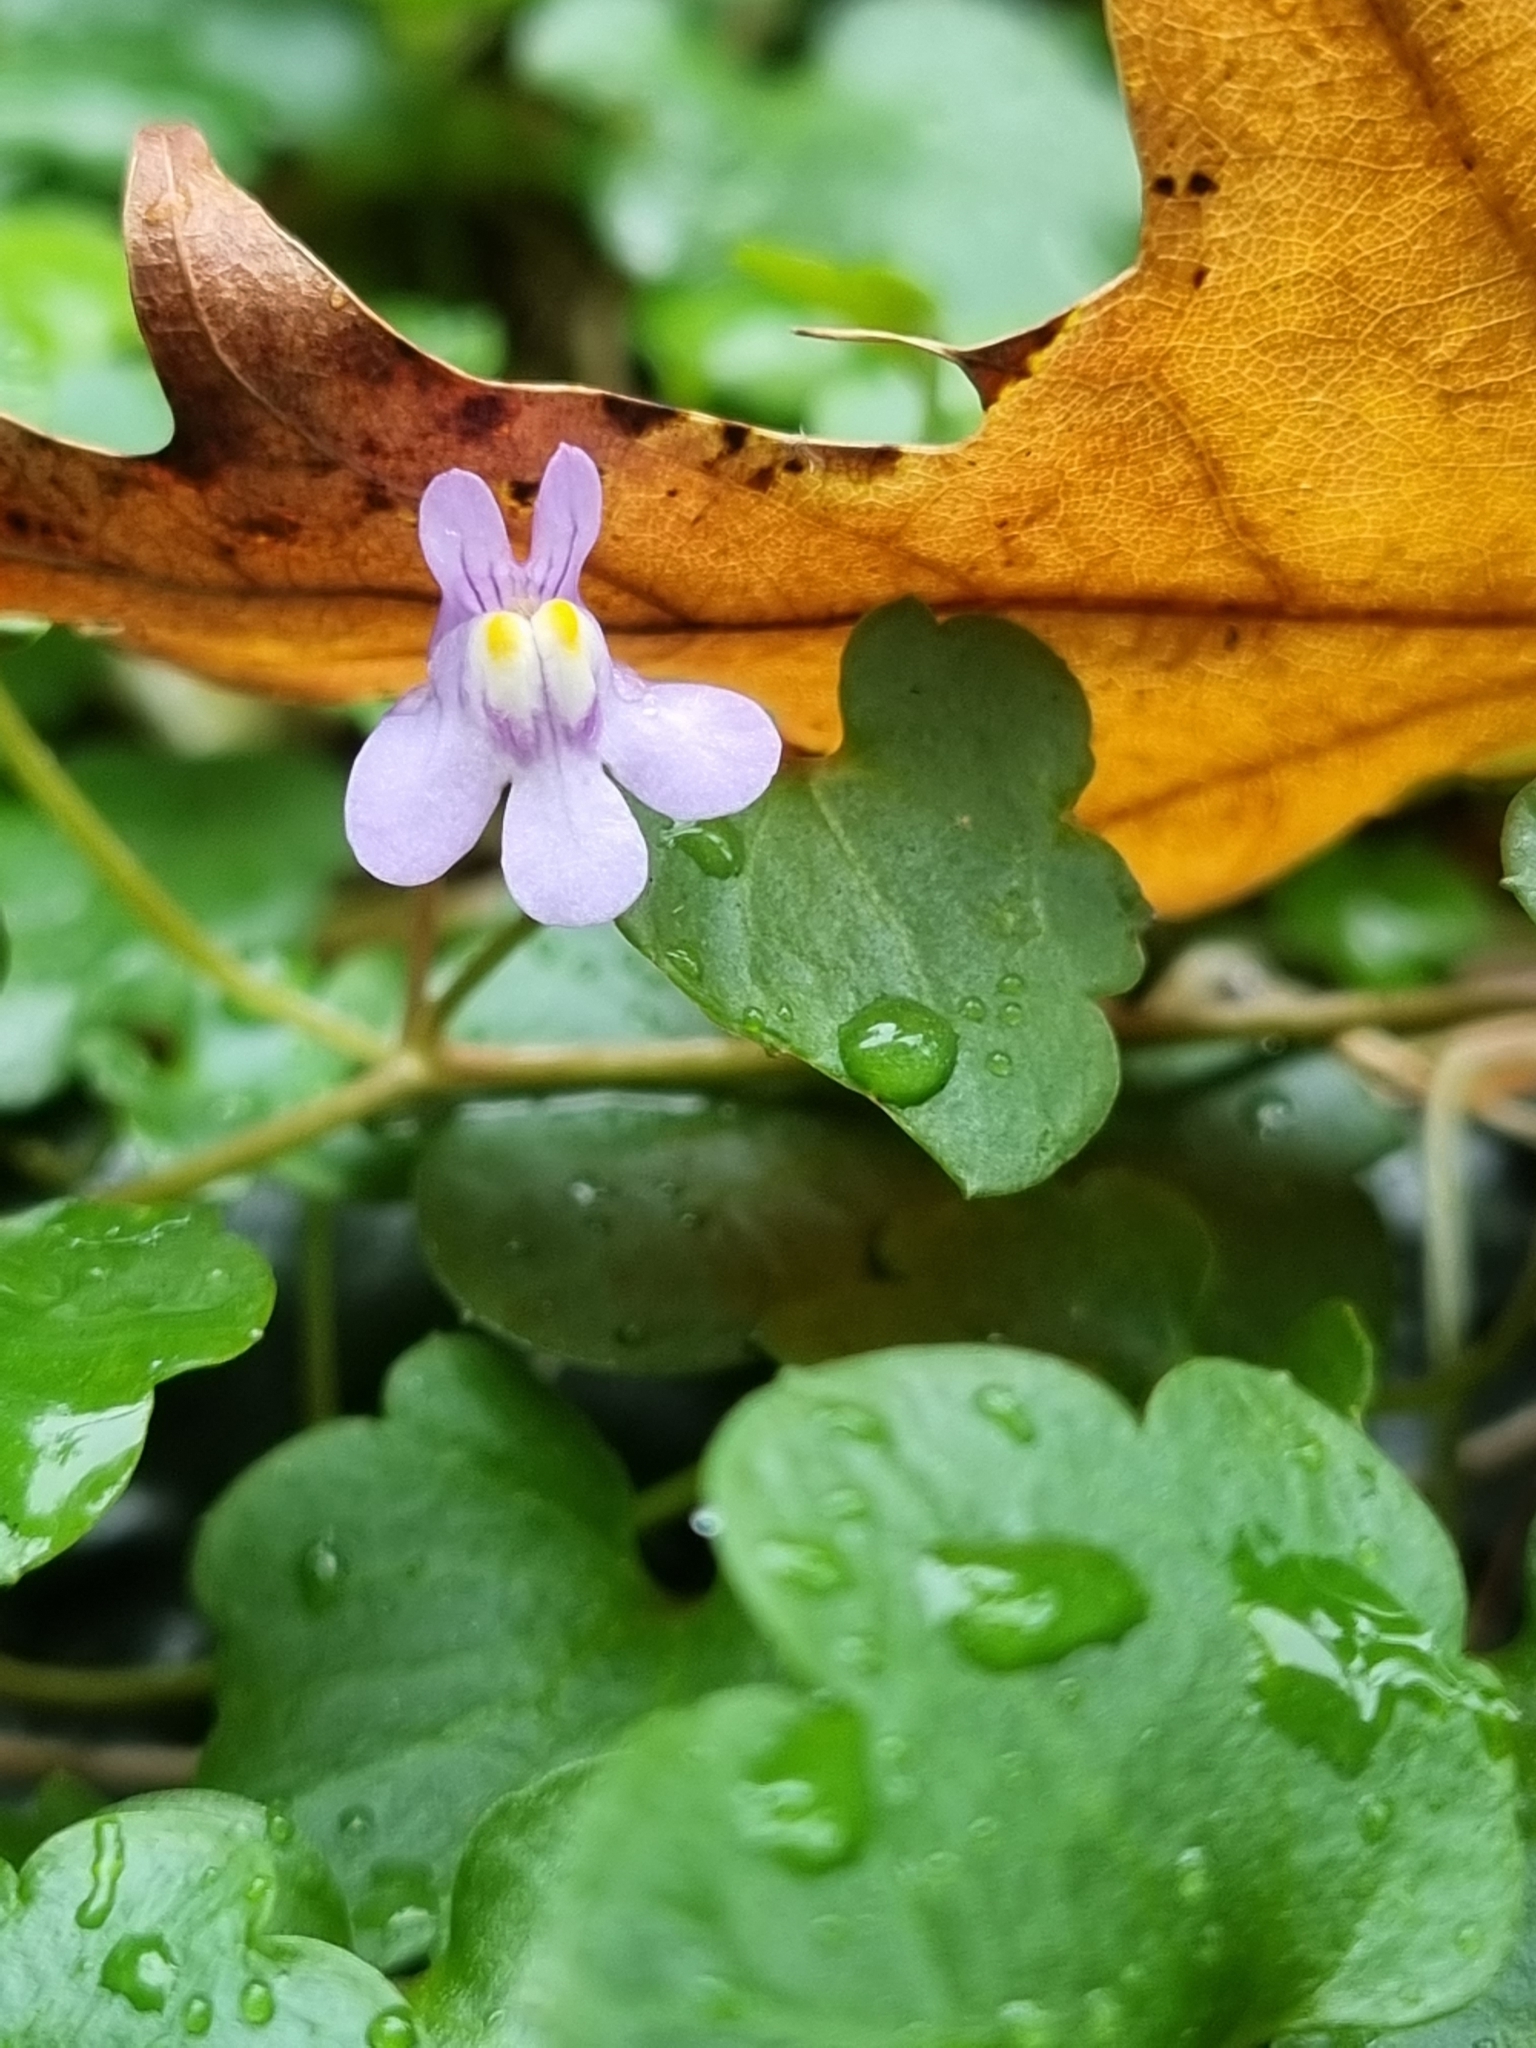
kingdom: Plantae
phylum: Tracheophyta
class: Magnoliopsida
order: Lamiales
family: Plantaginaceae
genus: Cymbalaria
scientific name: Cymbalaria muralis
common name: Ivy-leaved toadflax
